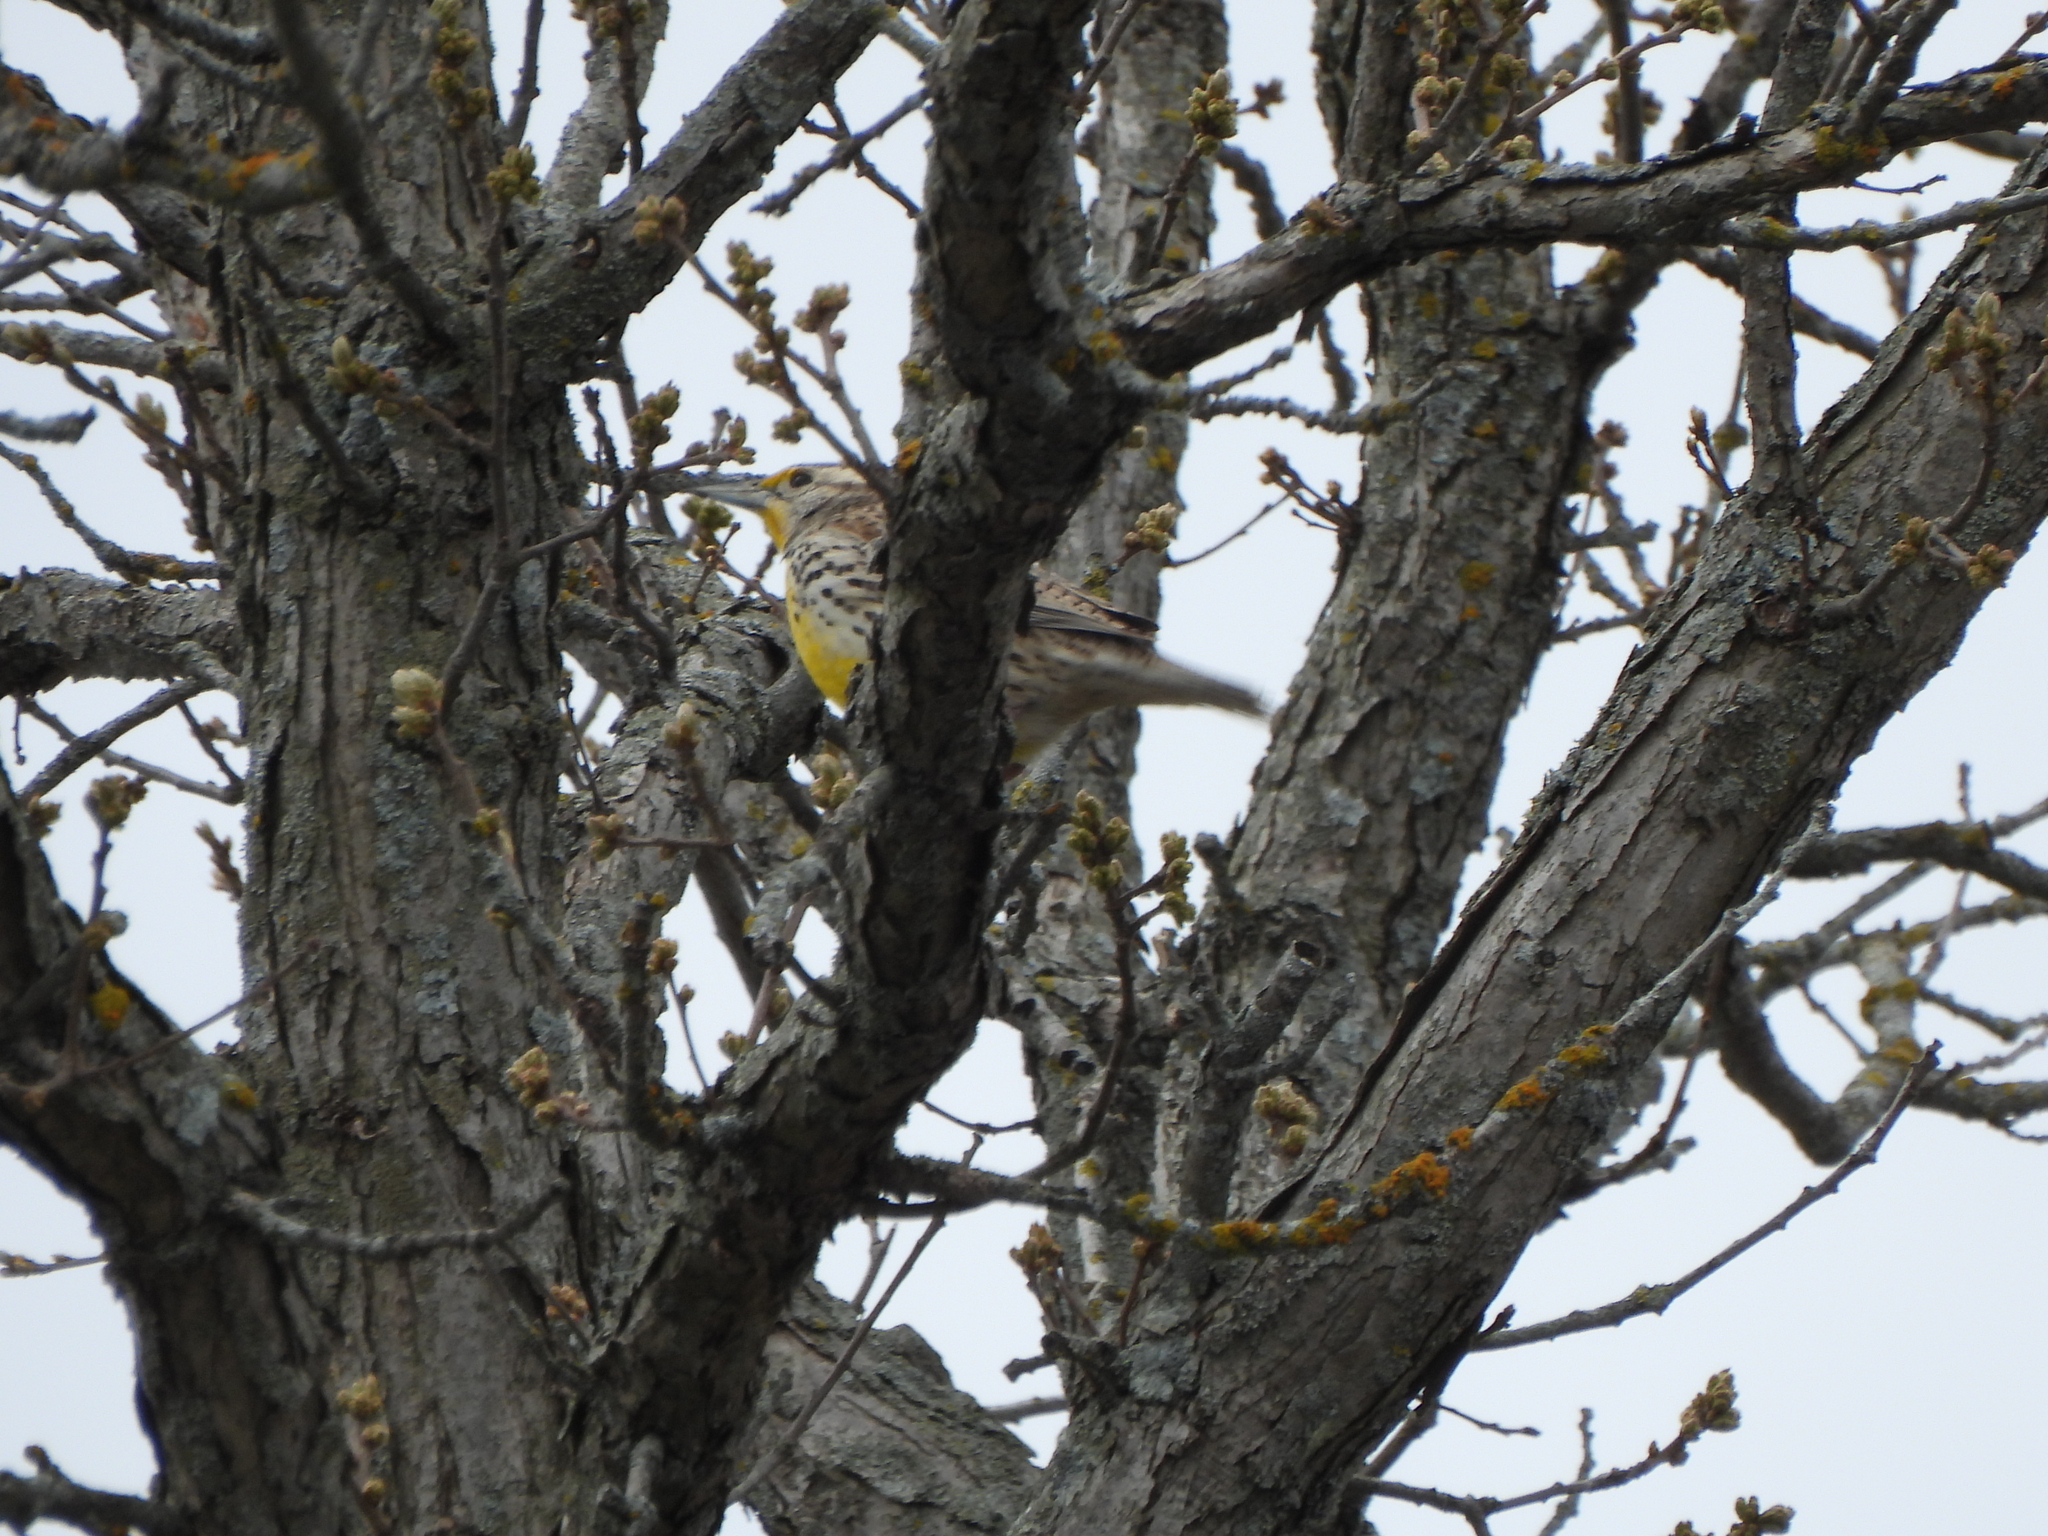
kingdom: Animalia
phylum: Chordata
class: Aves
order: Passeriformes
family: Icteridae
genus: Sturnella
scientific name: Sturnella neglecta
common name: Western meadowlark
